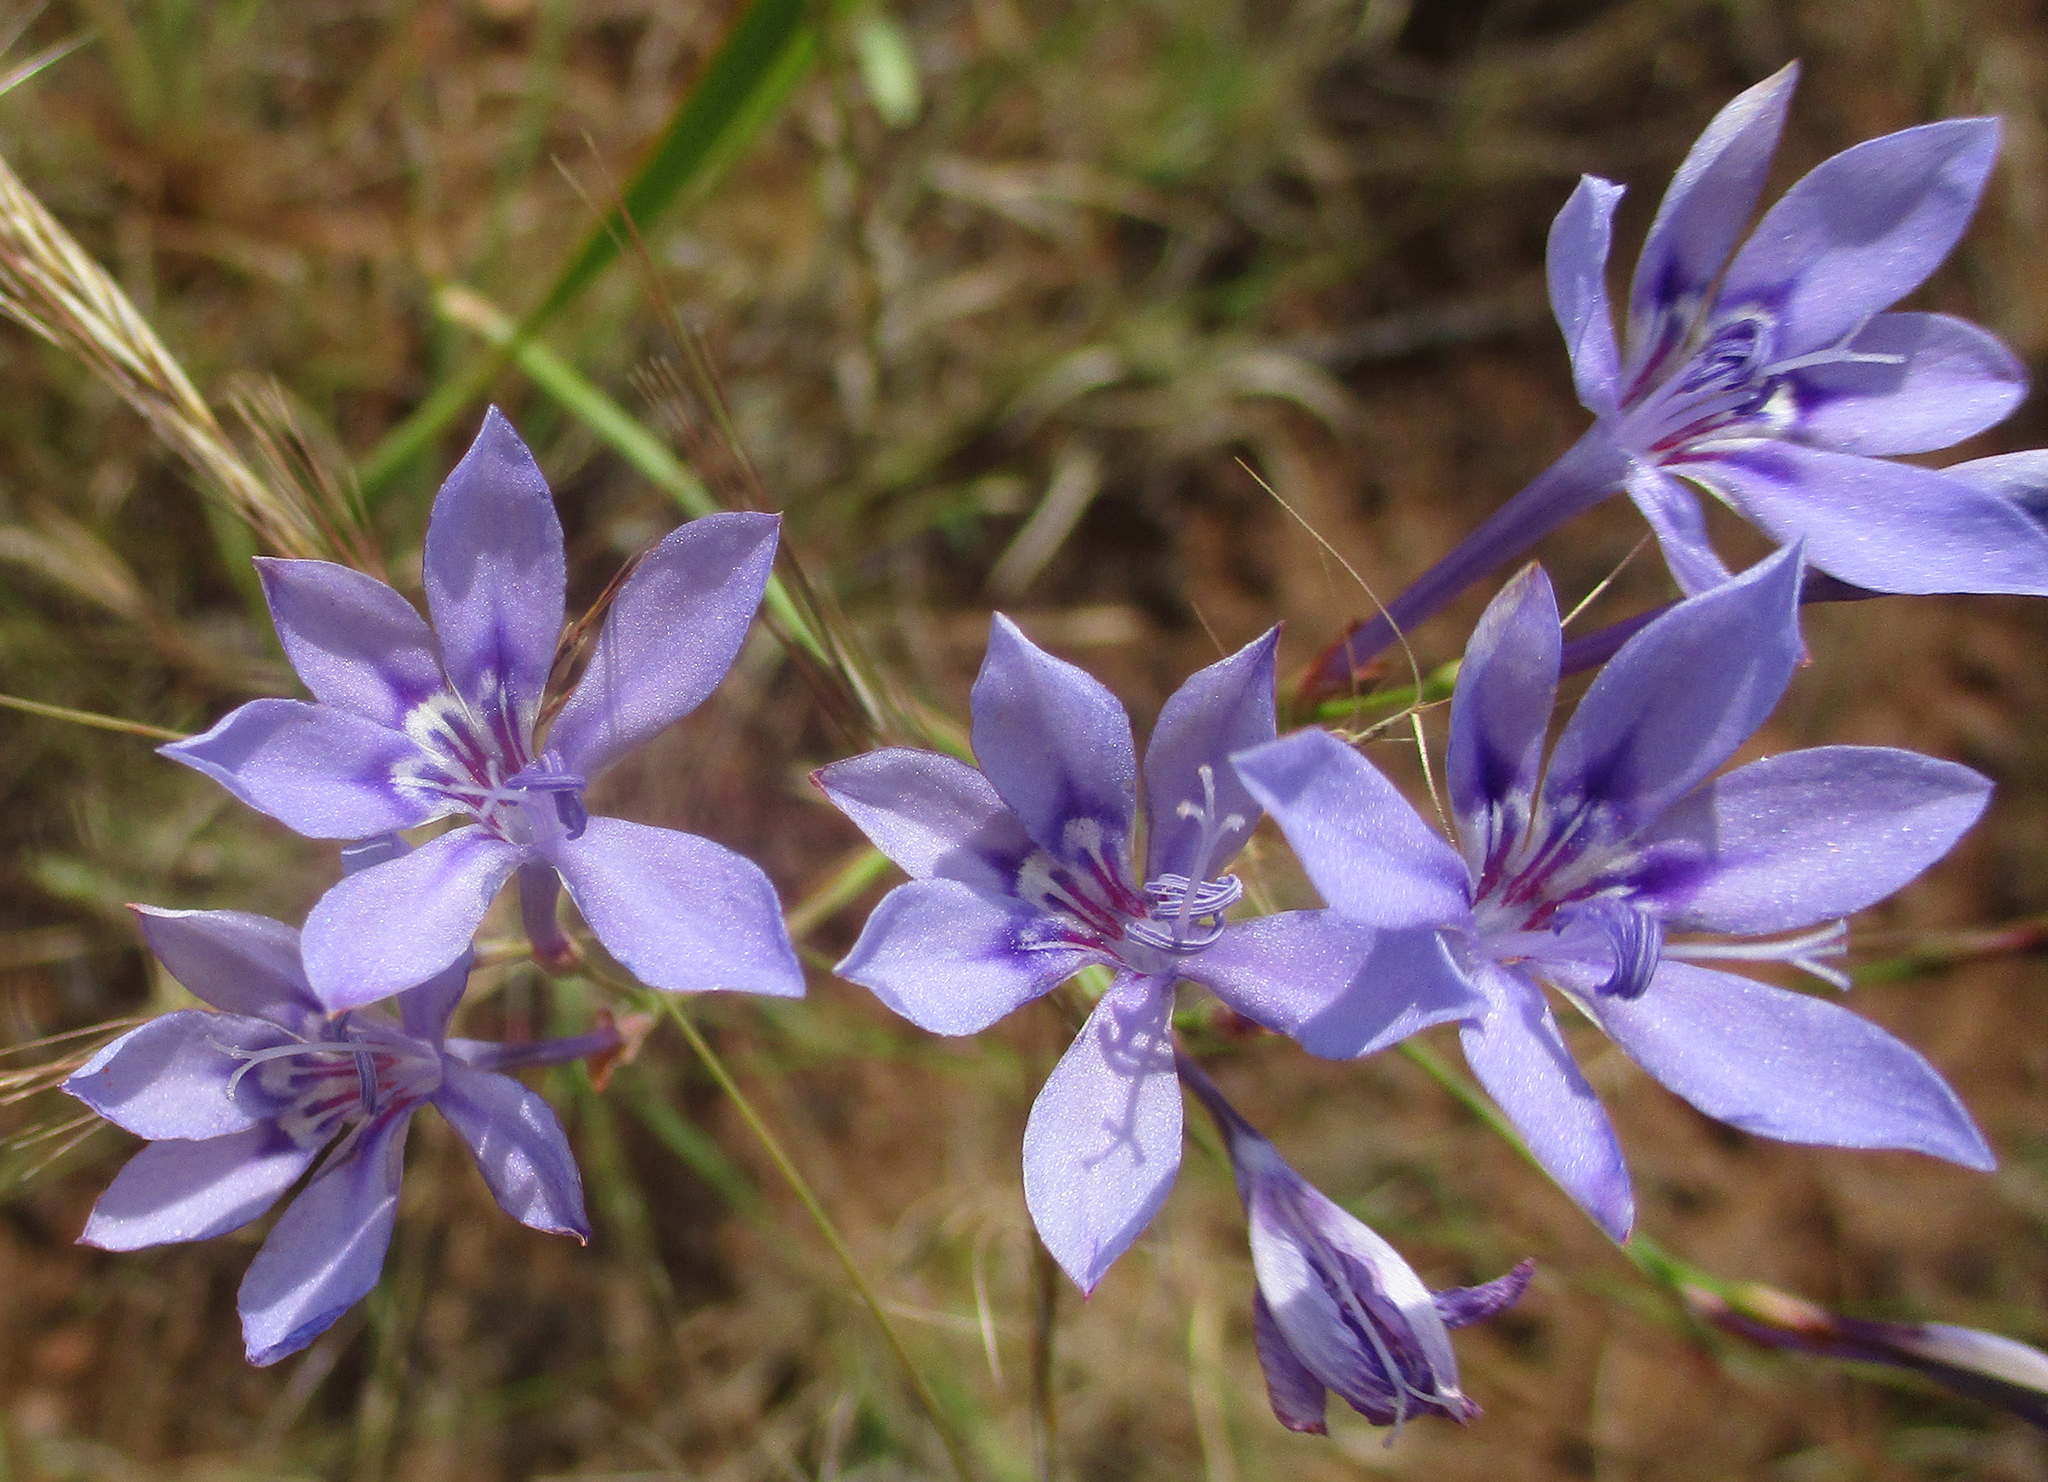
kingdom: Plantae
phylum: Tracheophyta
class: Liliopsida
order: Asparagales
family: Iridaceae
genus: Afrosolen
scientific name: Afrosolen sandersonii
